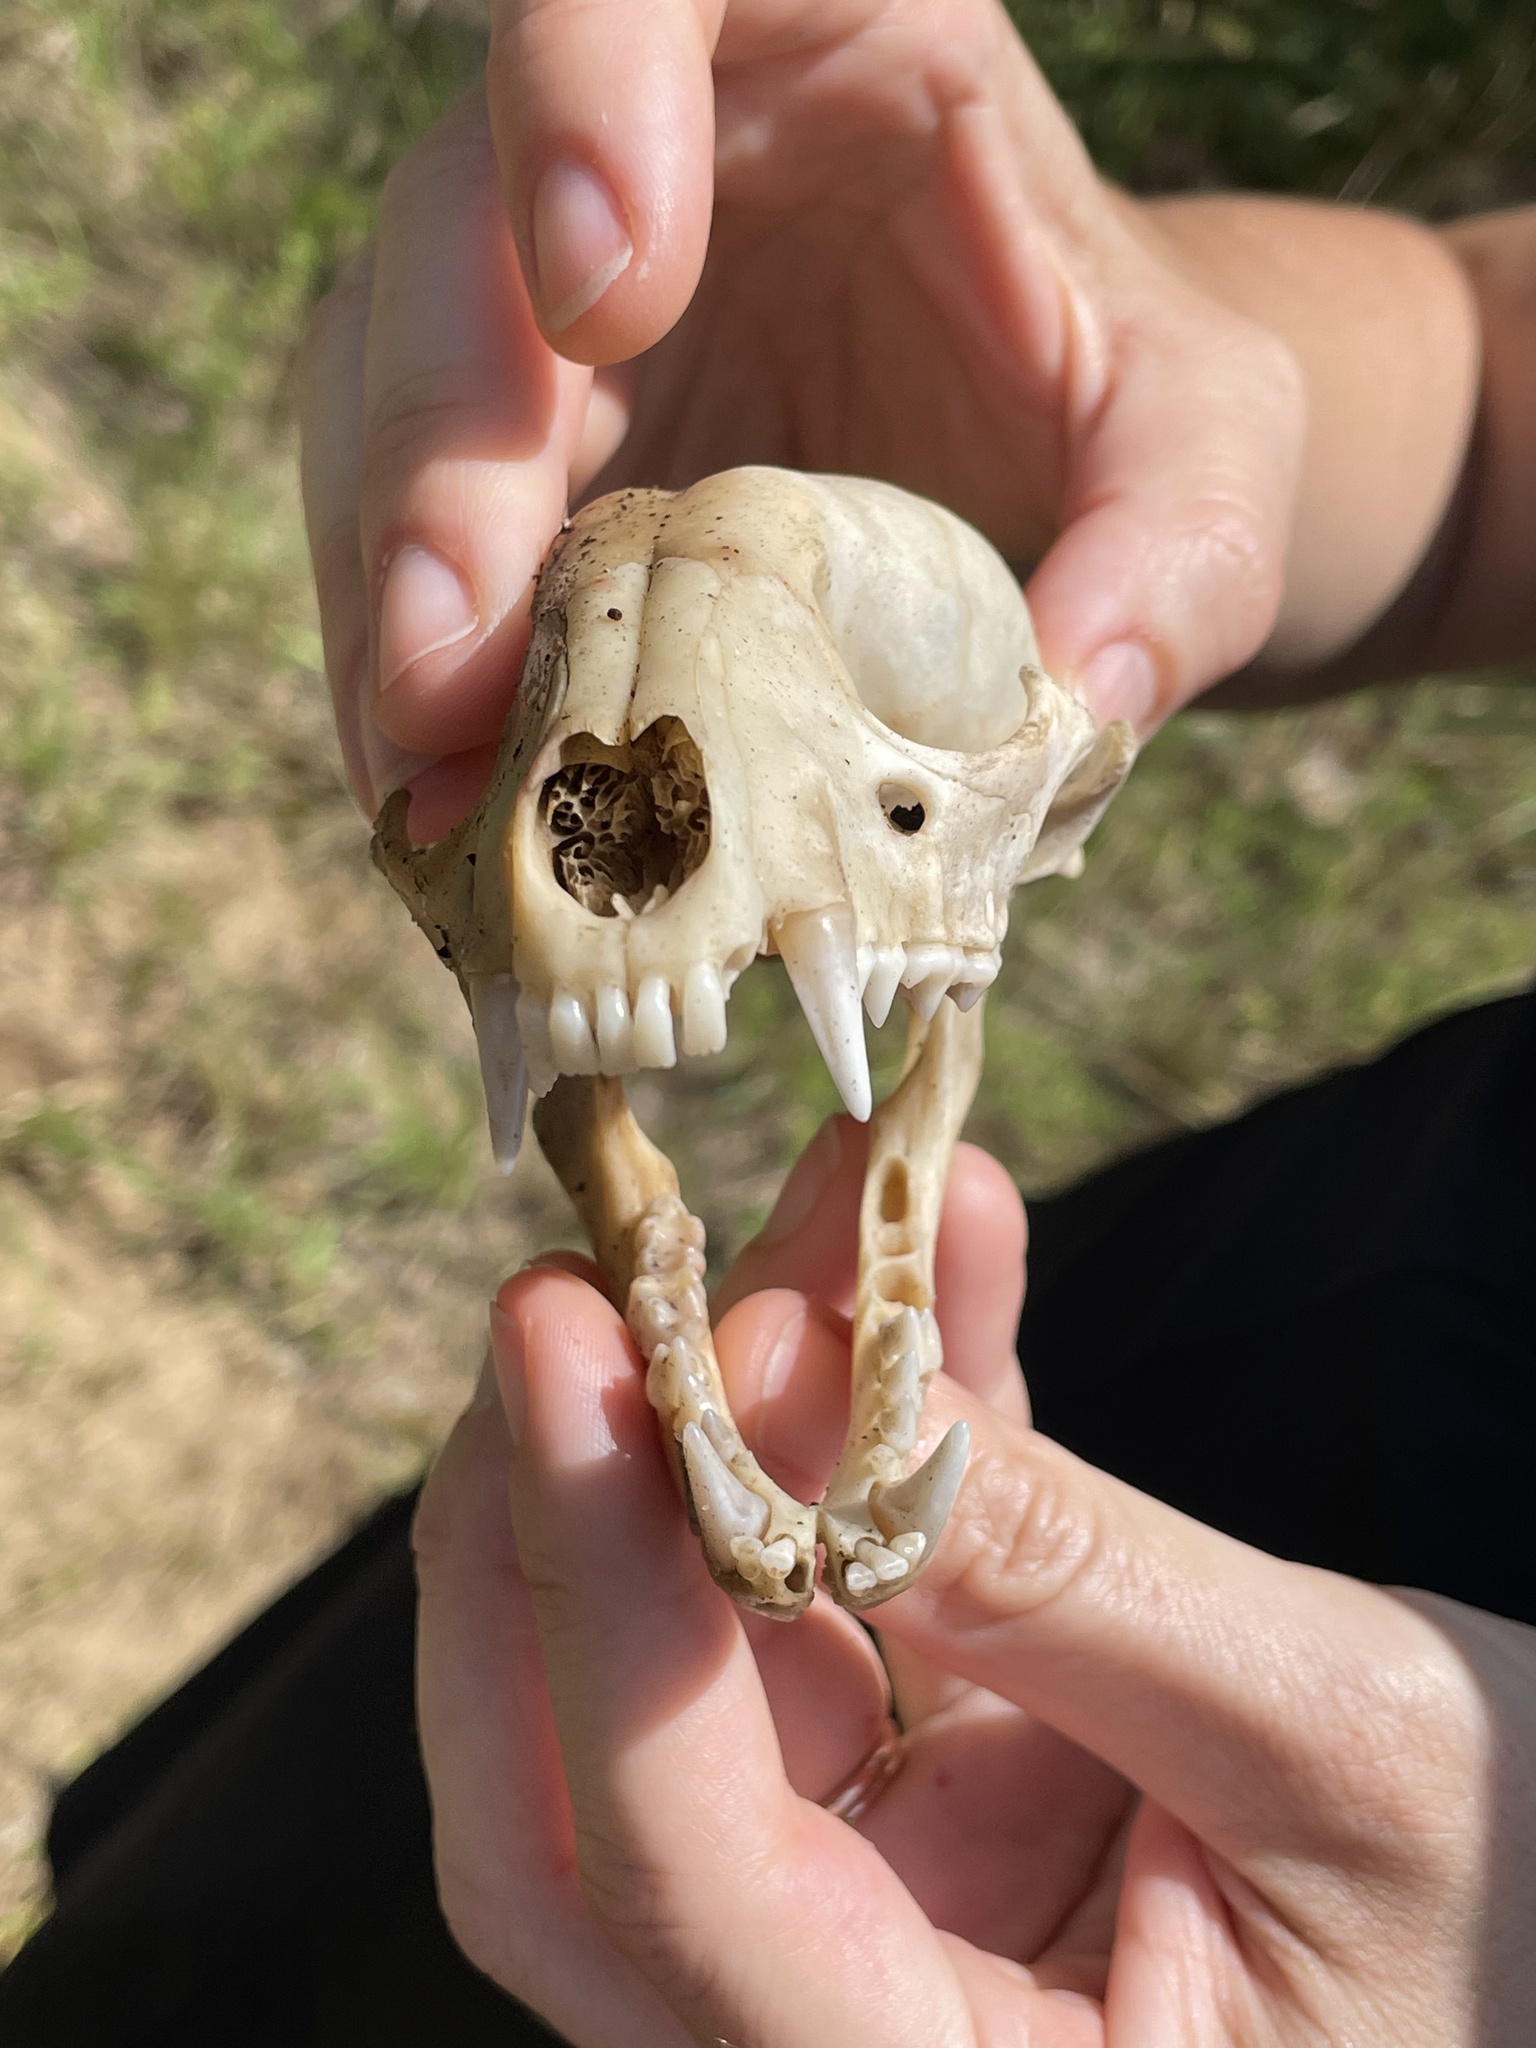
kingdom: Animalia
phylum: Chordata
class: Mammalia
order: Carnivora
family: Procyonidae
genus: Procyon
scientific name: Procyon lotor
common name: Raccoon
